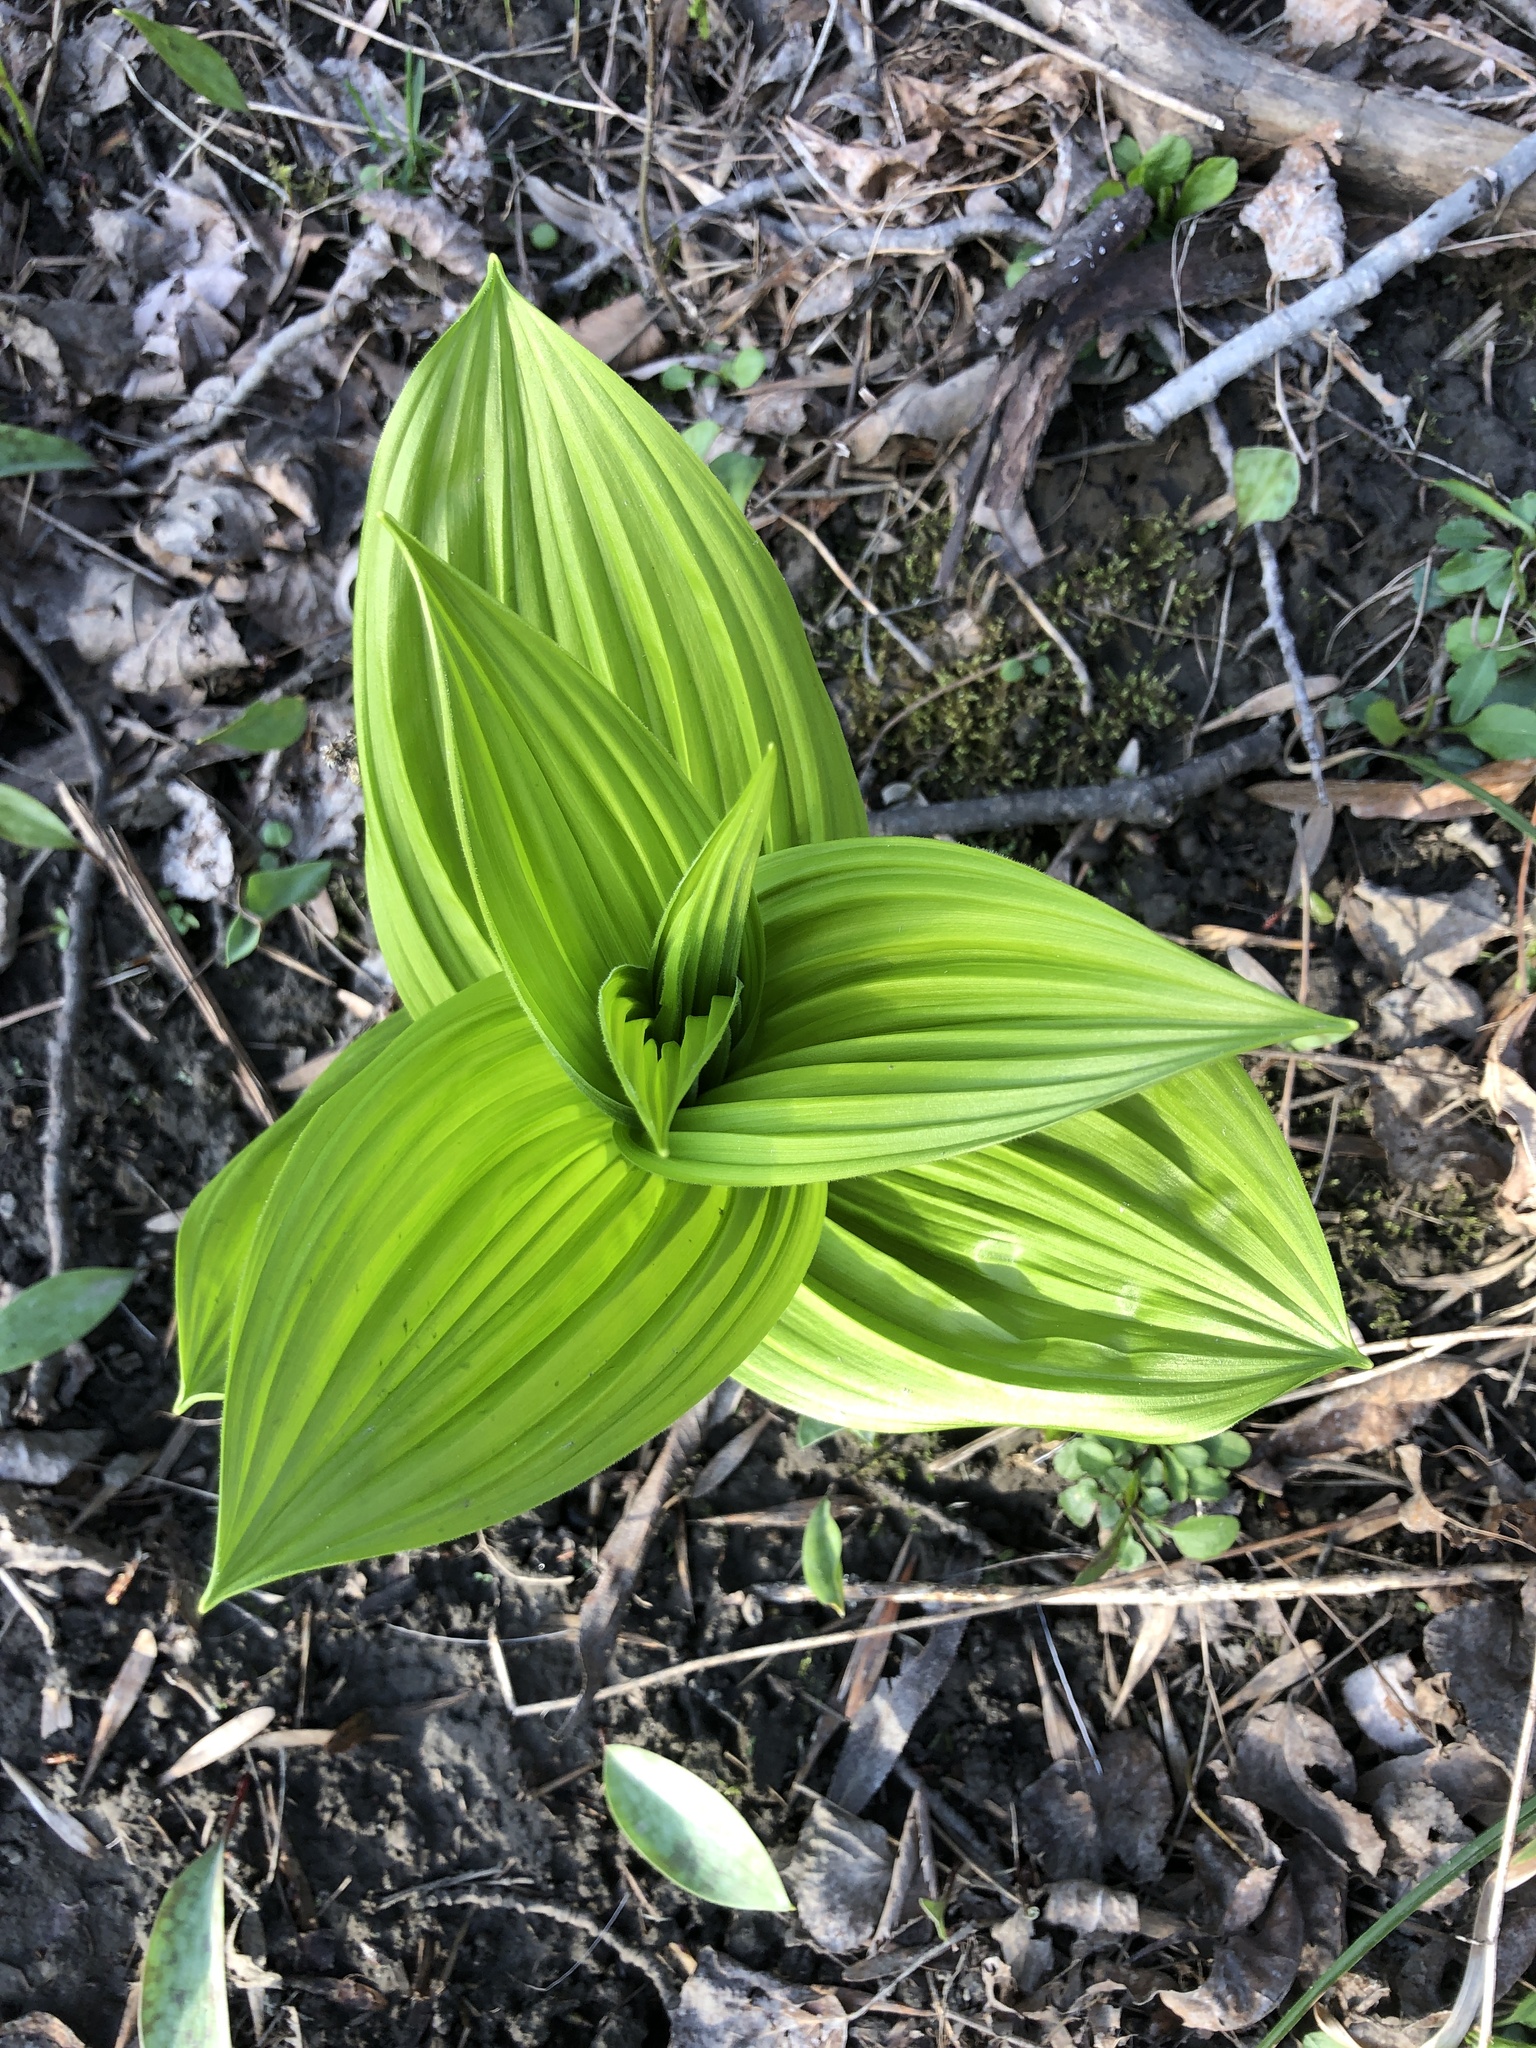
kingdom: Plantae
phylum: Tracheophyta
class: Liliopsida
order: Liliales
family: Melanthiaceae
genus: Veratrum
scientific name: Veratrum viride
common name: American false hellebore
